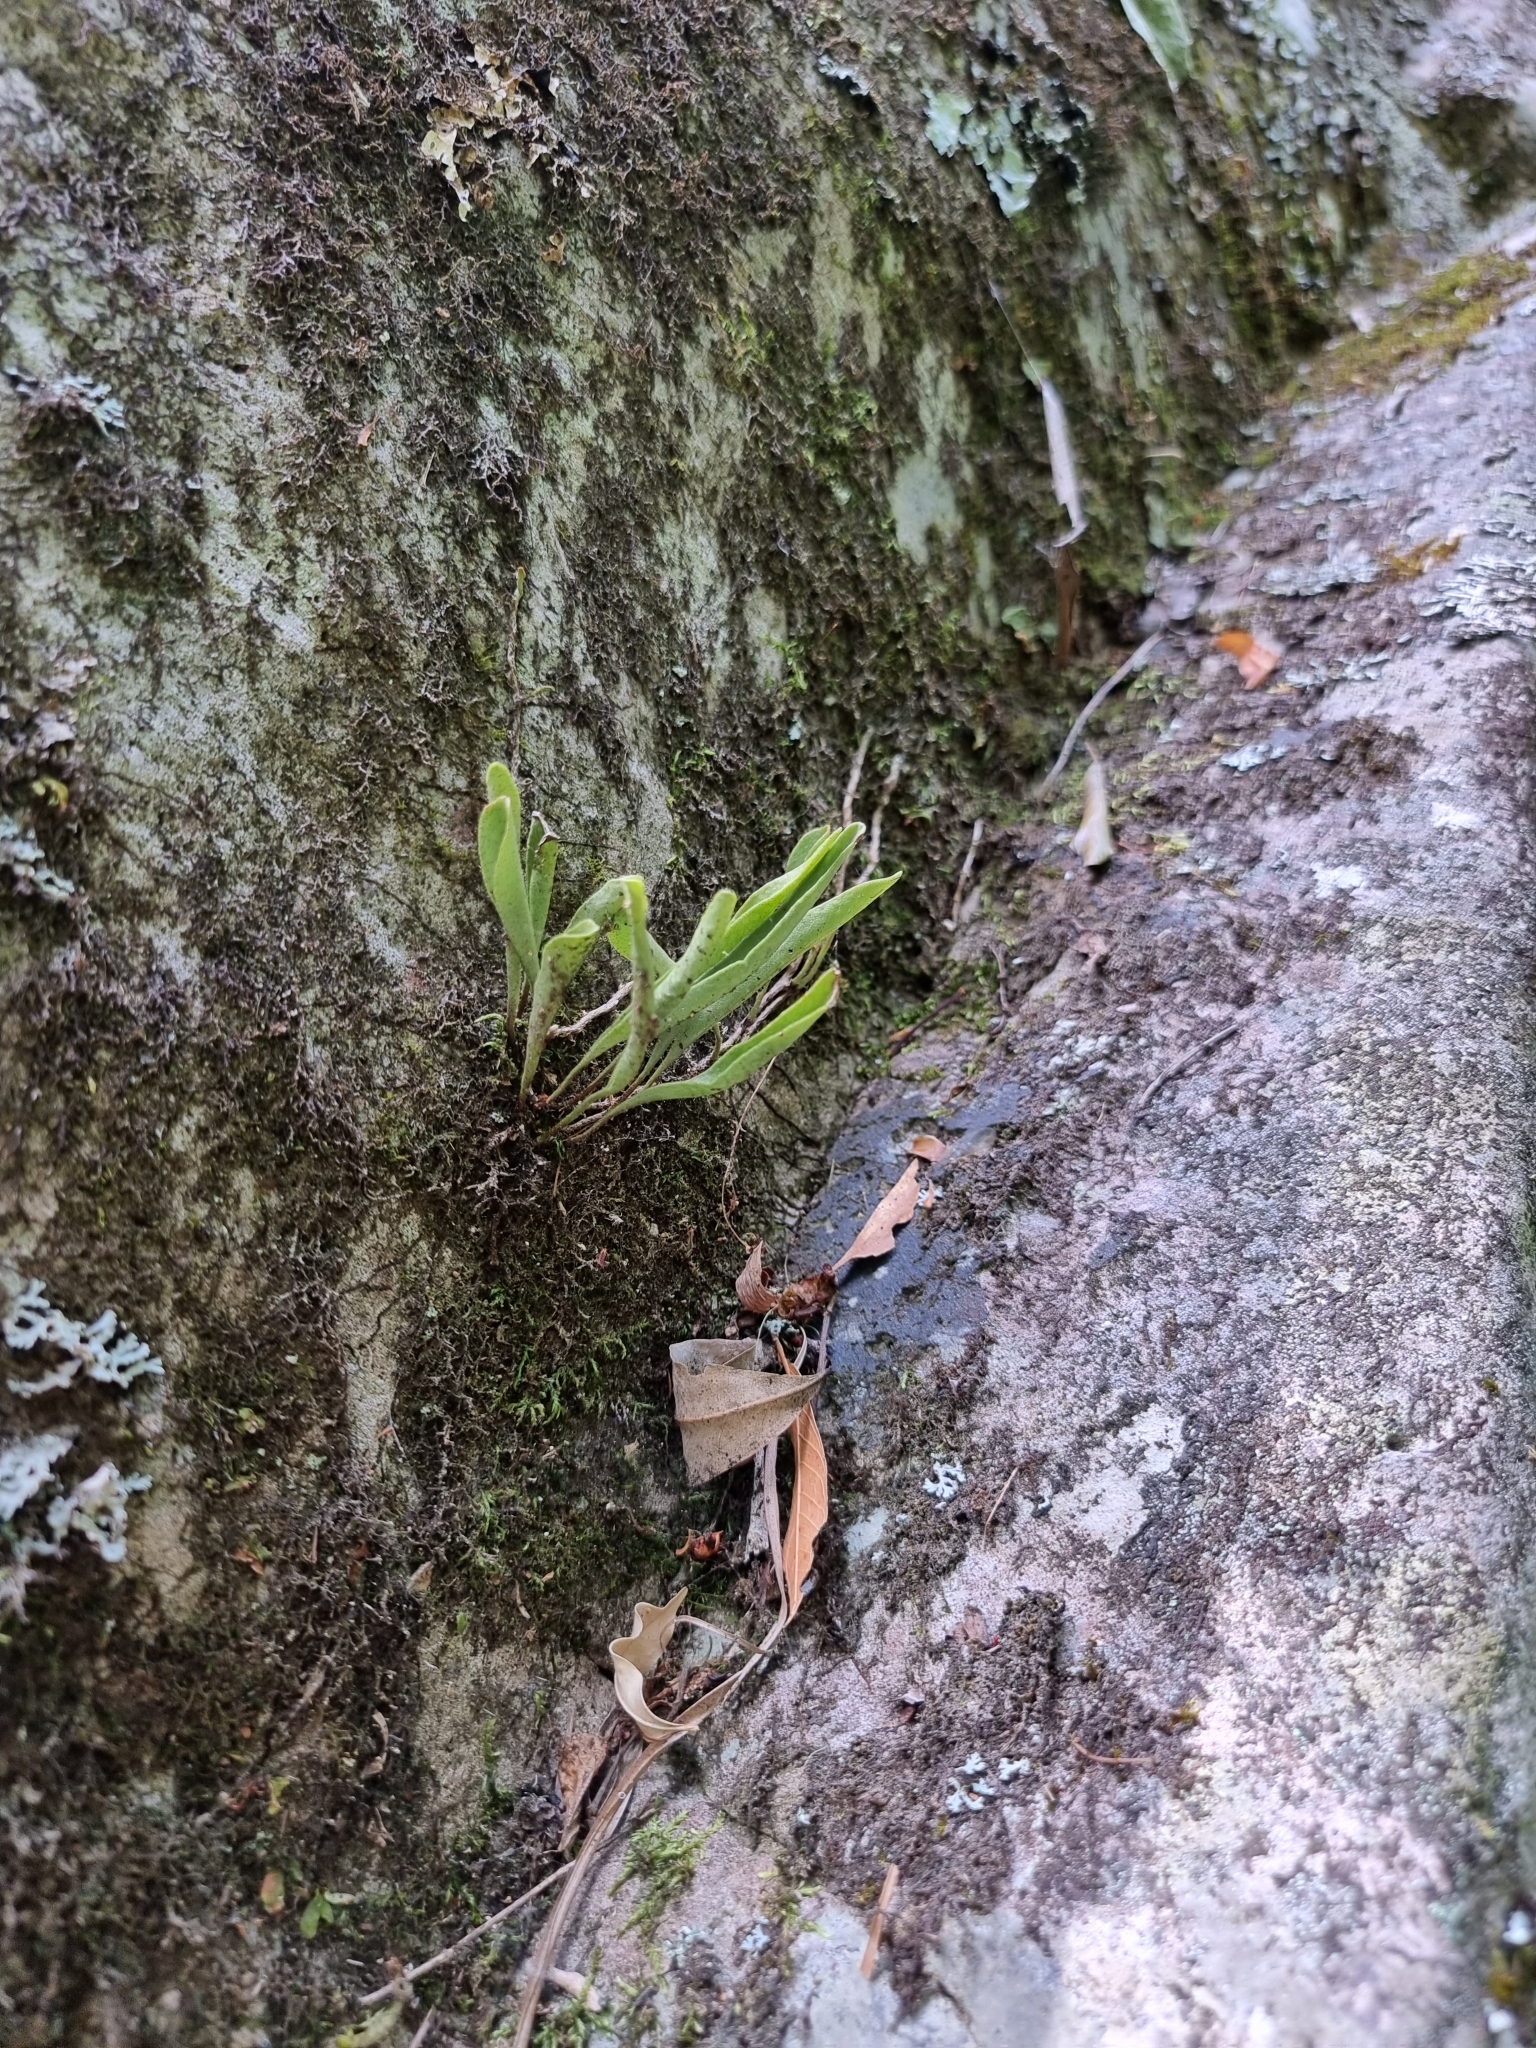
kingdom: Plantae
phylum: Tracheophyta
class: Polypodiopsida
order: Polypodiales
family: Polypodiaceae
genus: Pyrrosia
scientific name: Pyrrosia confluens
